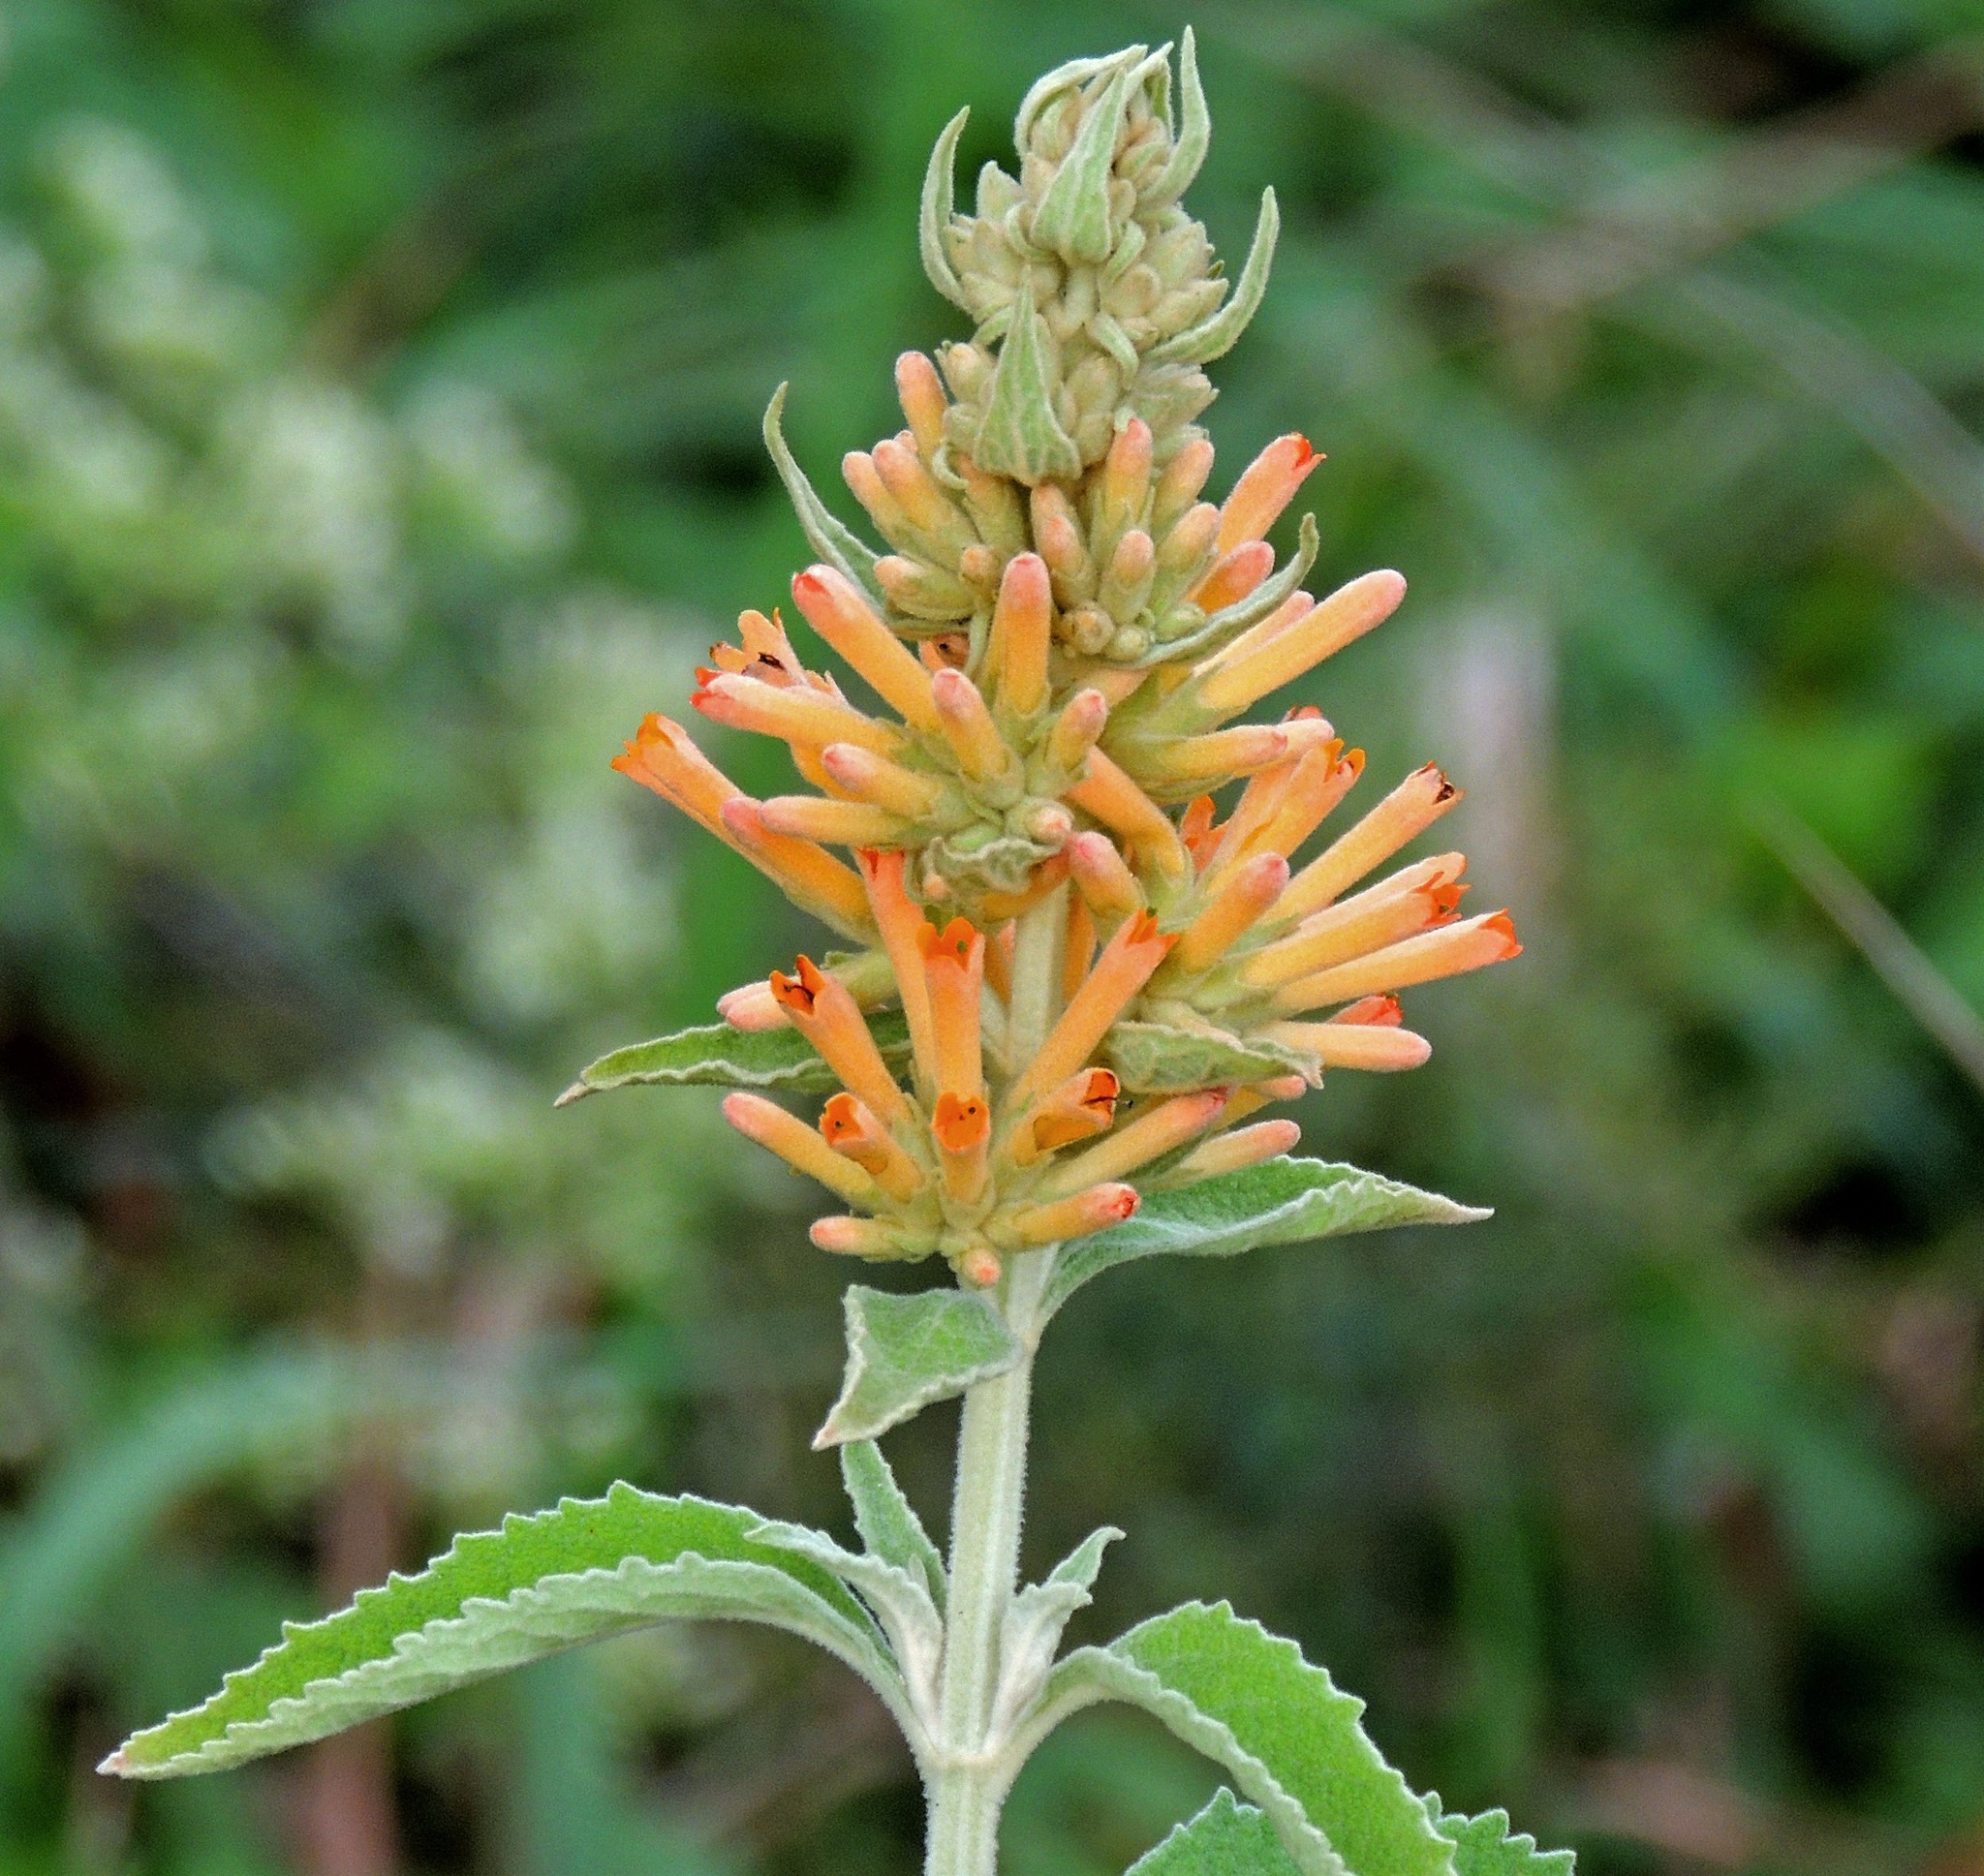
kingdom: Plantae
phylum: Tracheophyta
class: Magnoliopsida
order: Lamiales
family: Scrophulariaceae
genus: Buddleja
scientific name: Buddleja tubiflora
